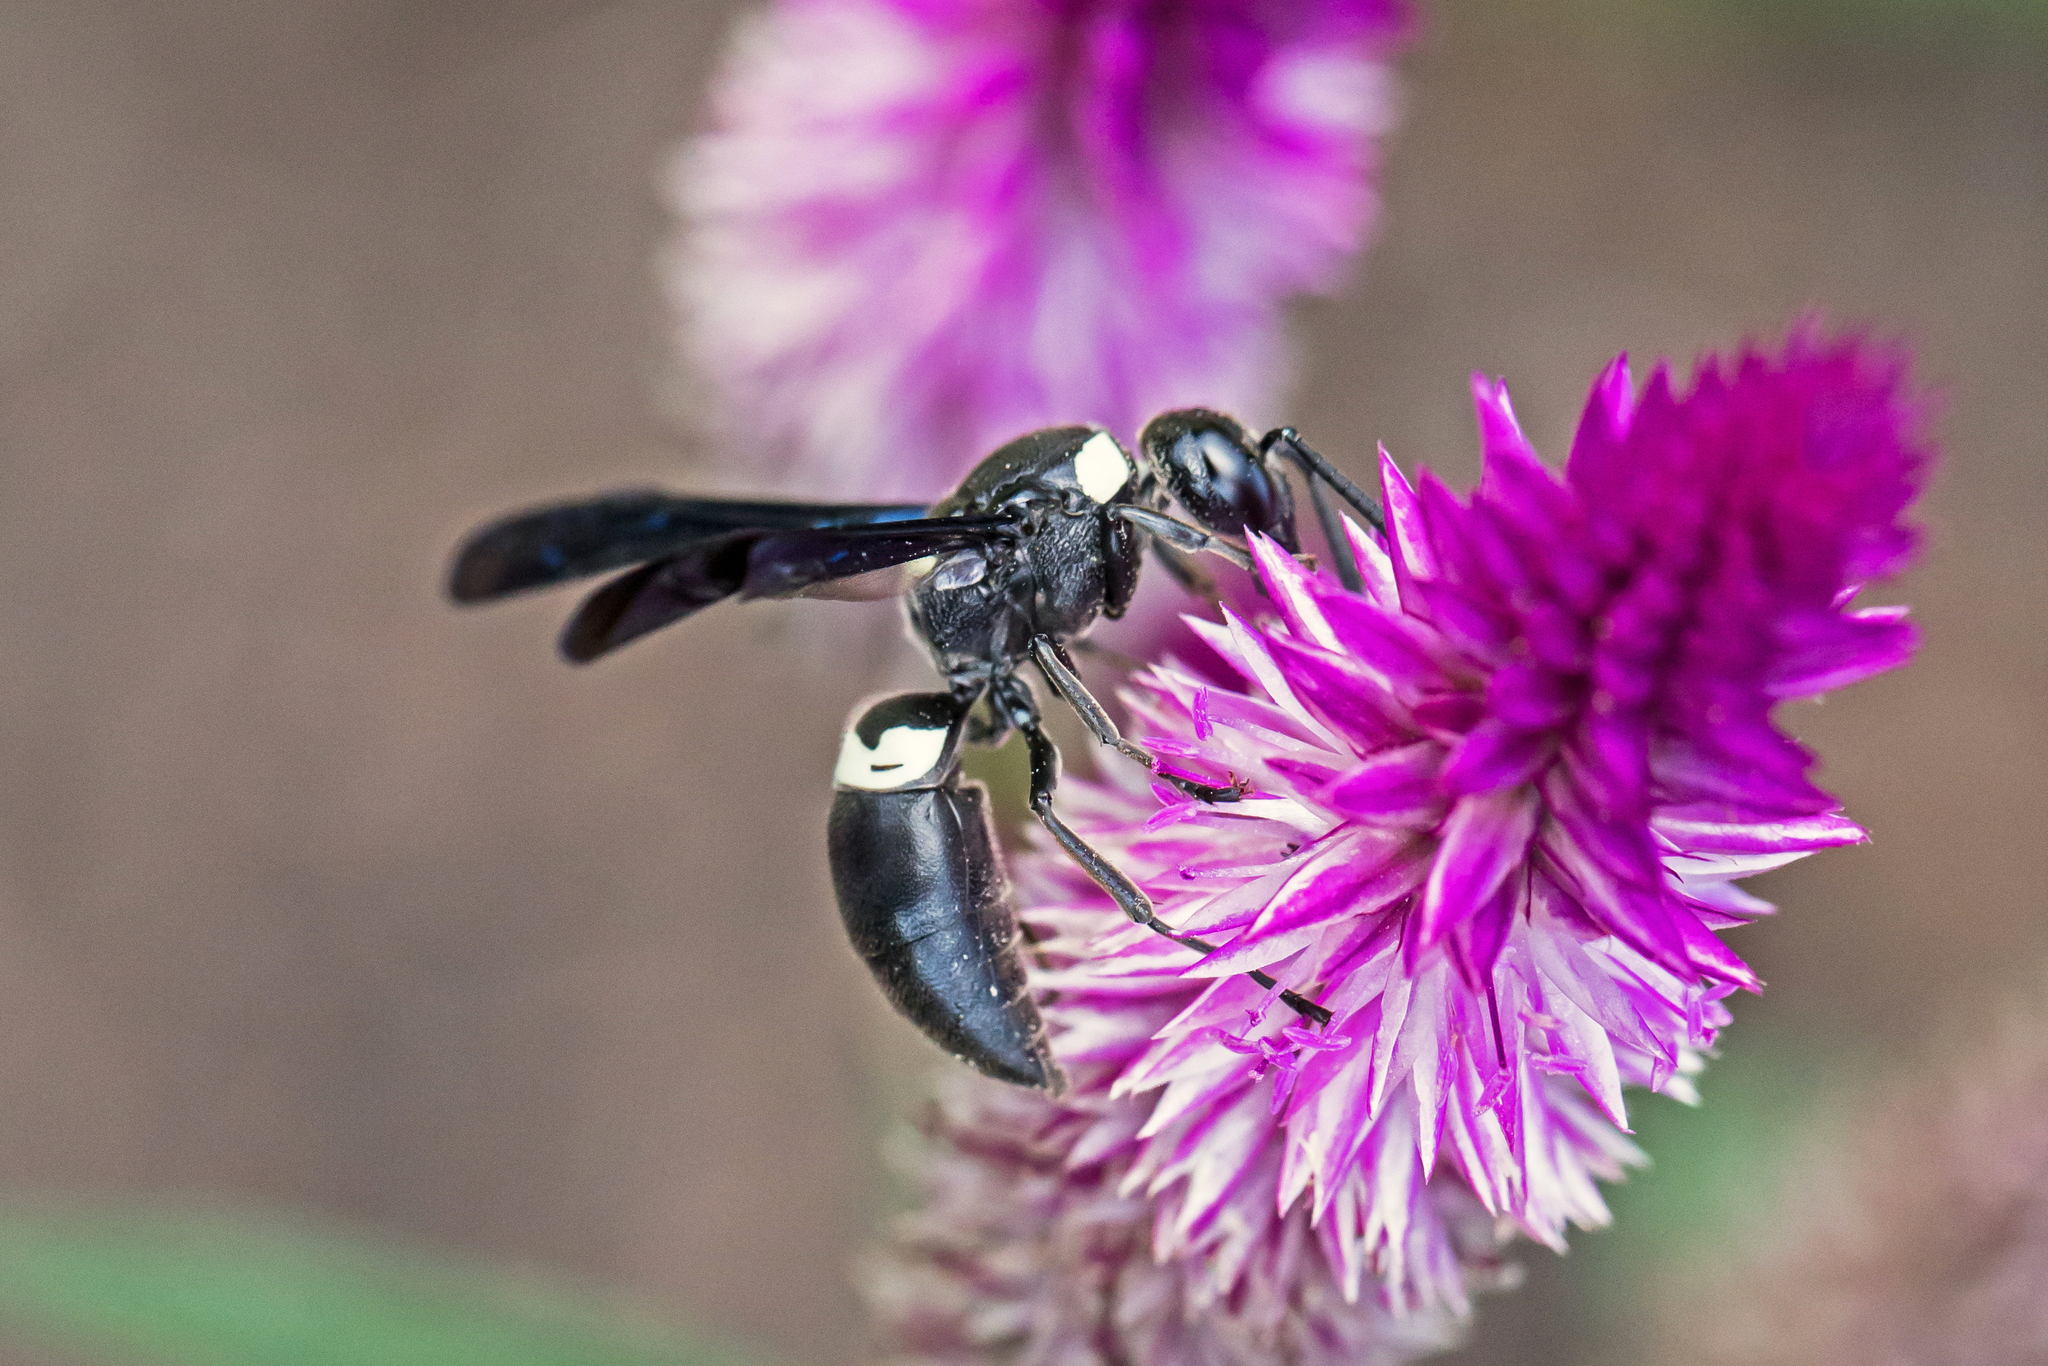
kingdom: Animalia
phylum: Arthropoda
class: Insecta
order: Hymenoptera
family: Eumenidae
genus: Monobia
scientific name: Monobia quadridens
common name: Four-toothed mason wasp
